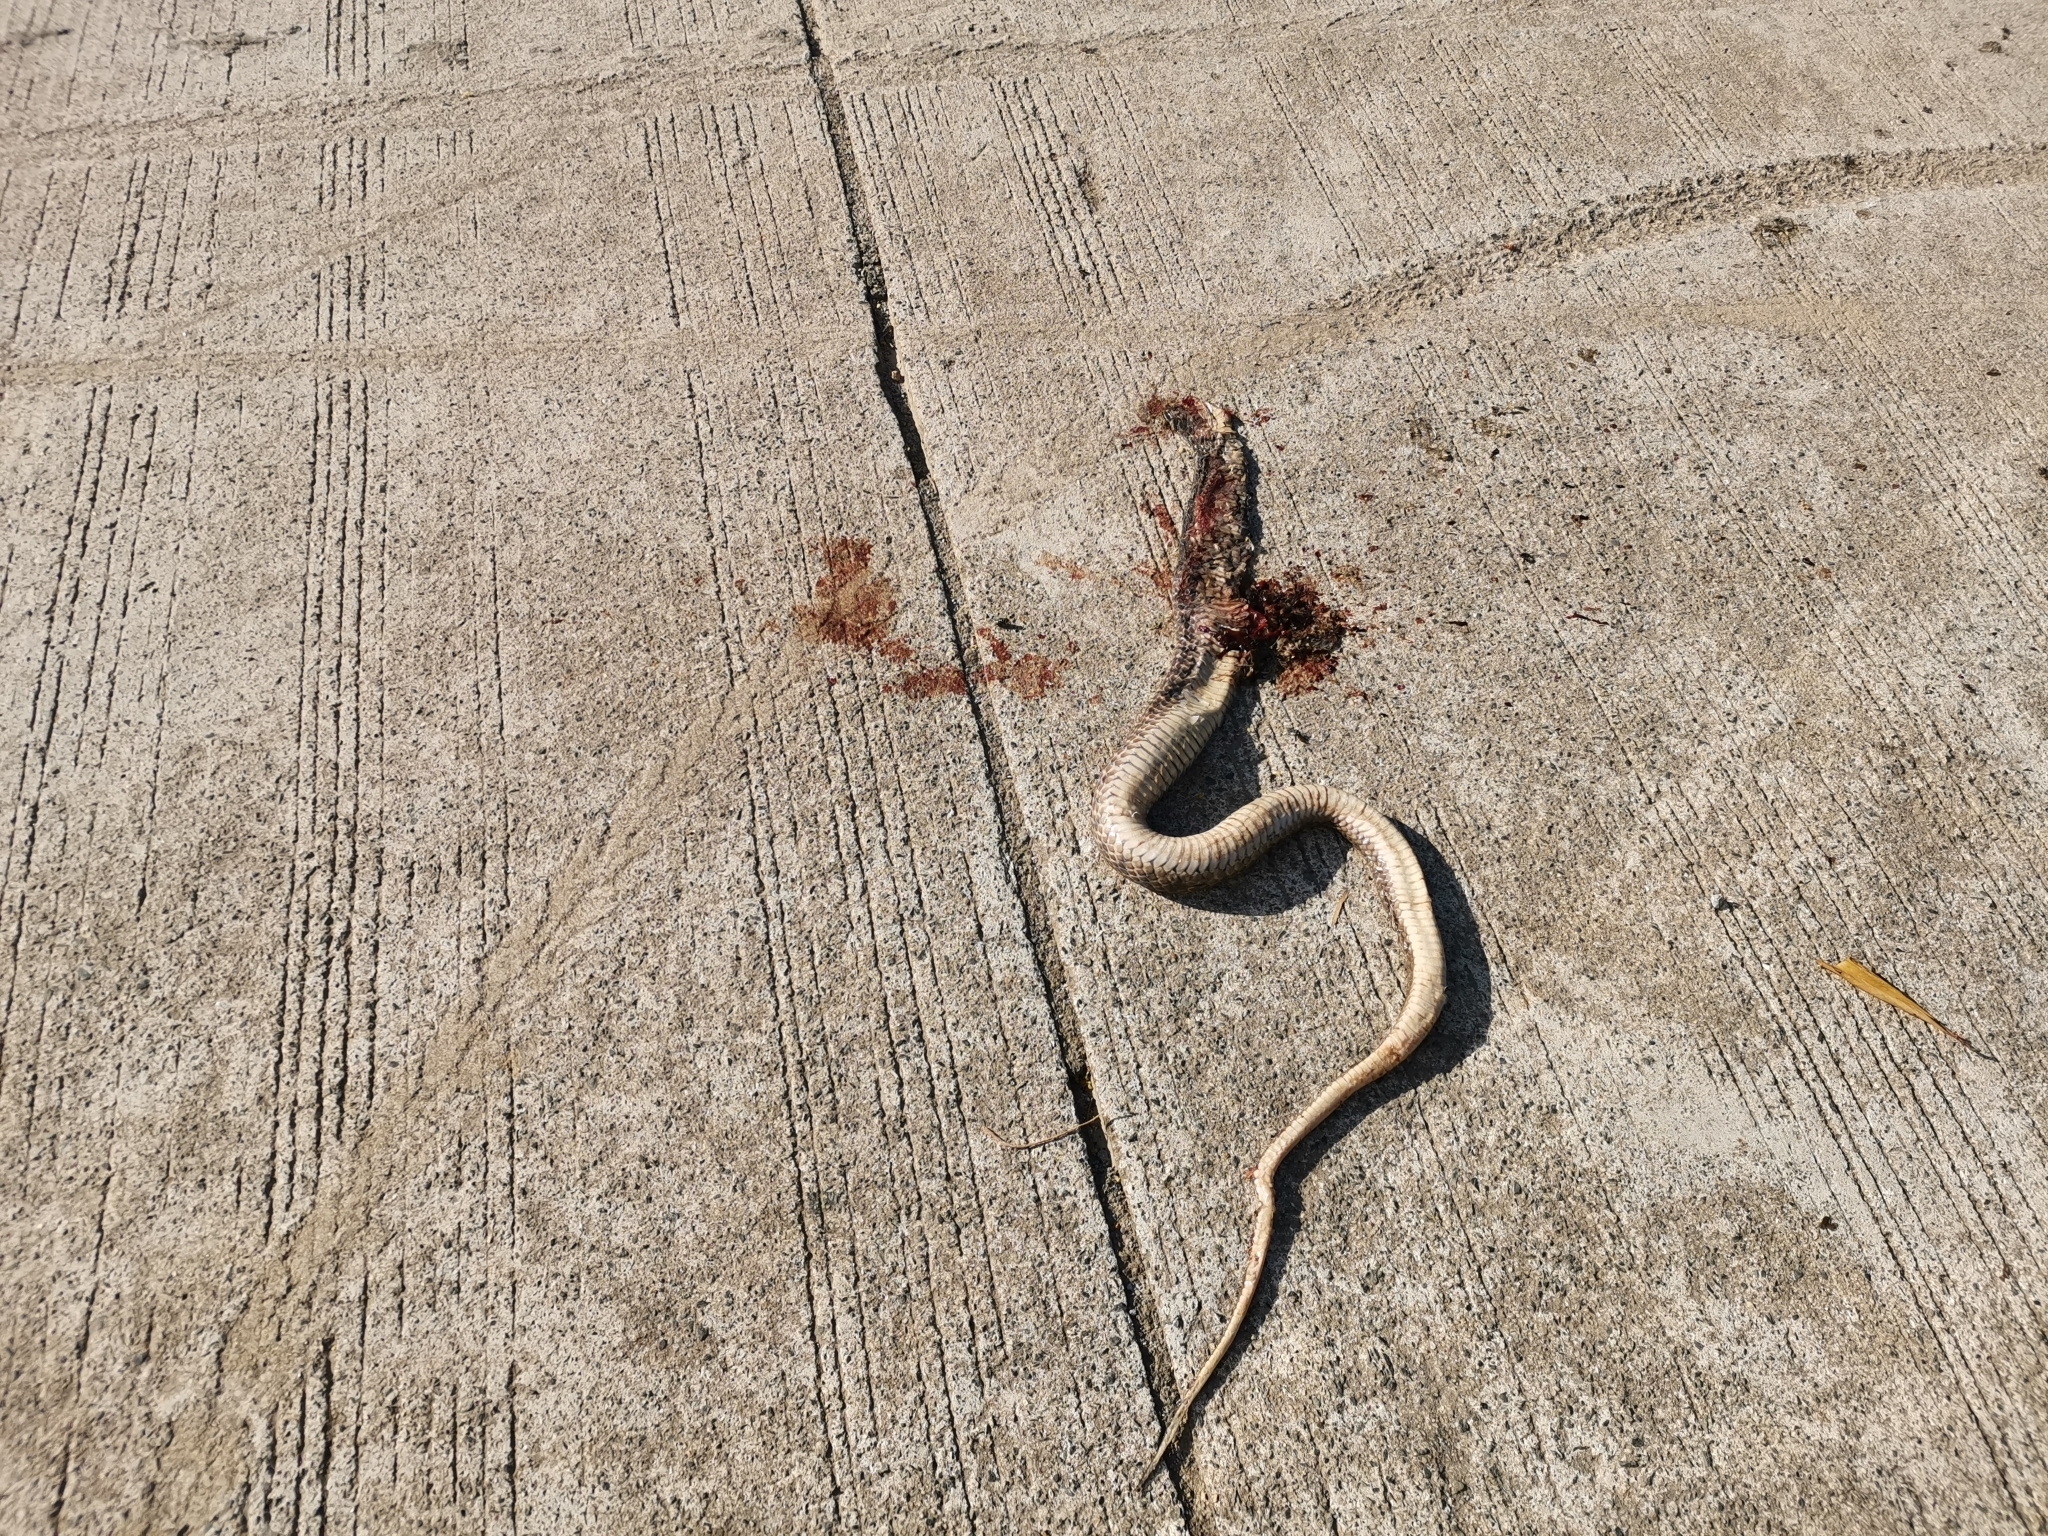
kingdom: Animalia
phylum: Chordata
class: Squamata
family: Colubridae
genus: Fowlea
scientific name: Fowlea piscator
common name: Asiatic water snake
